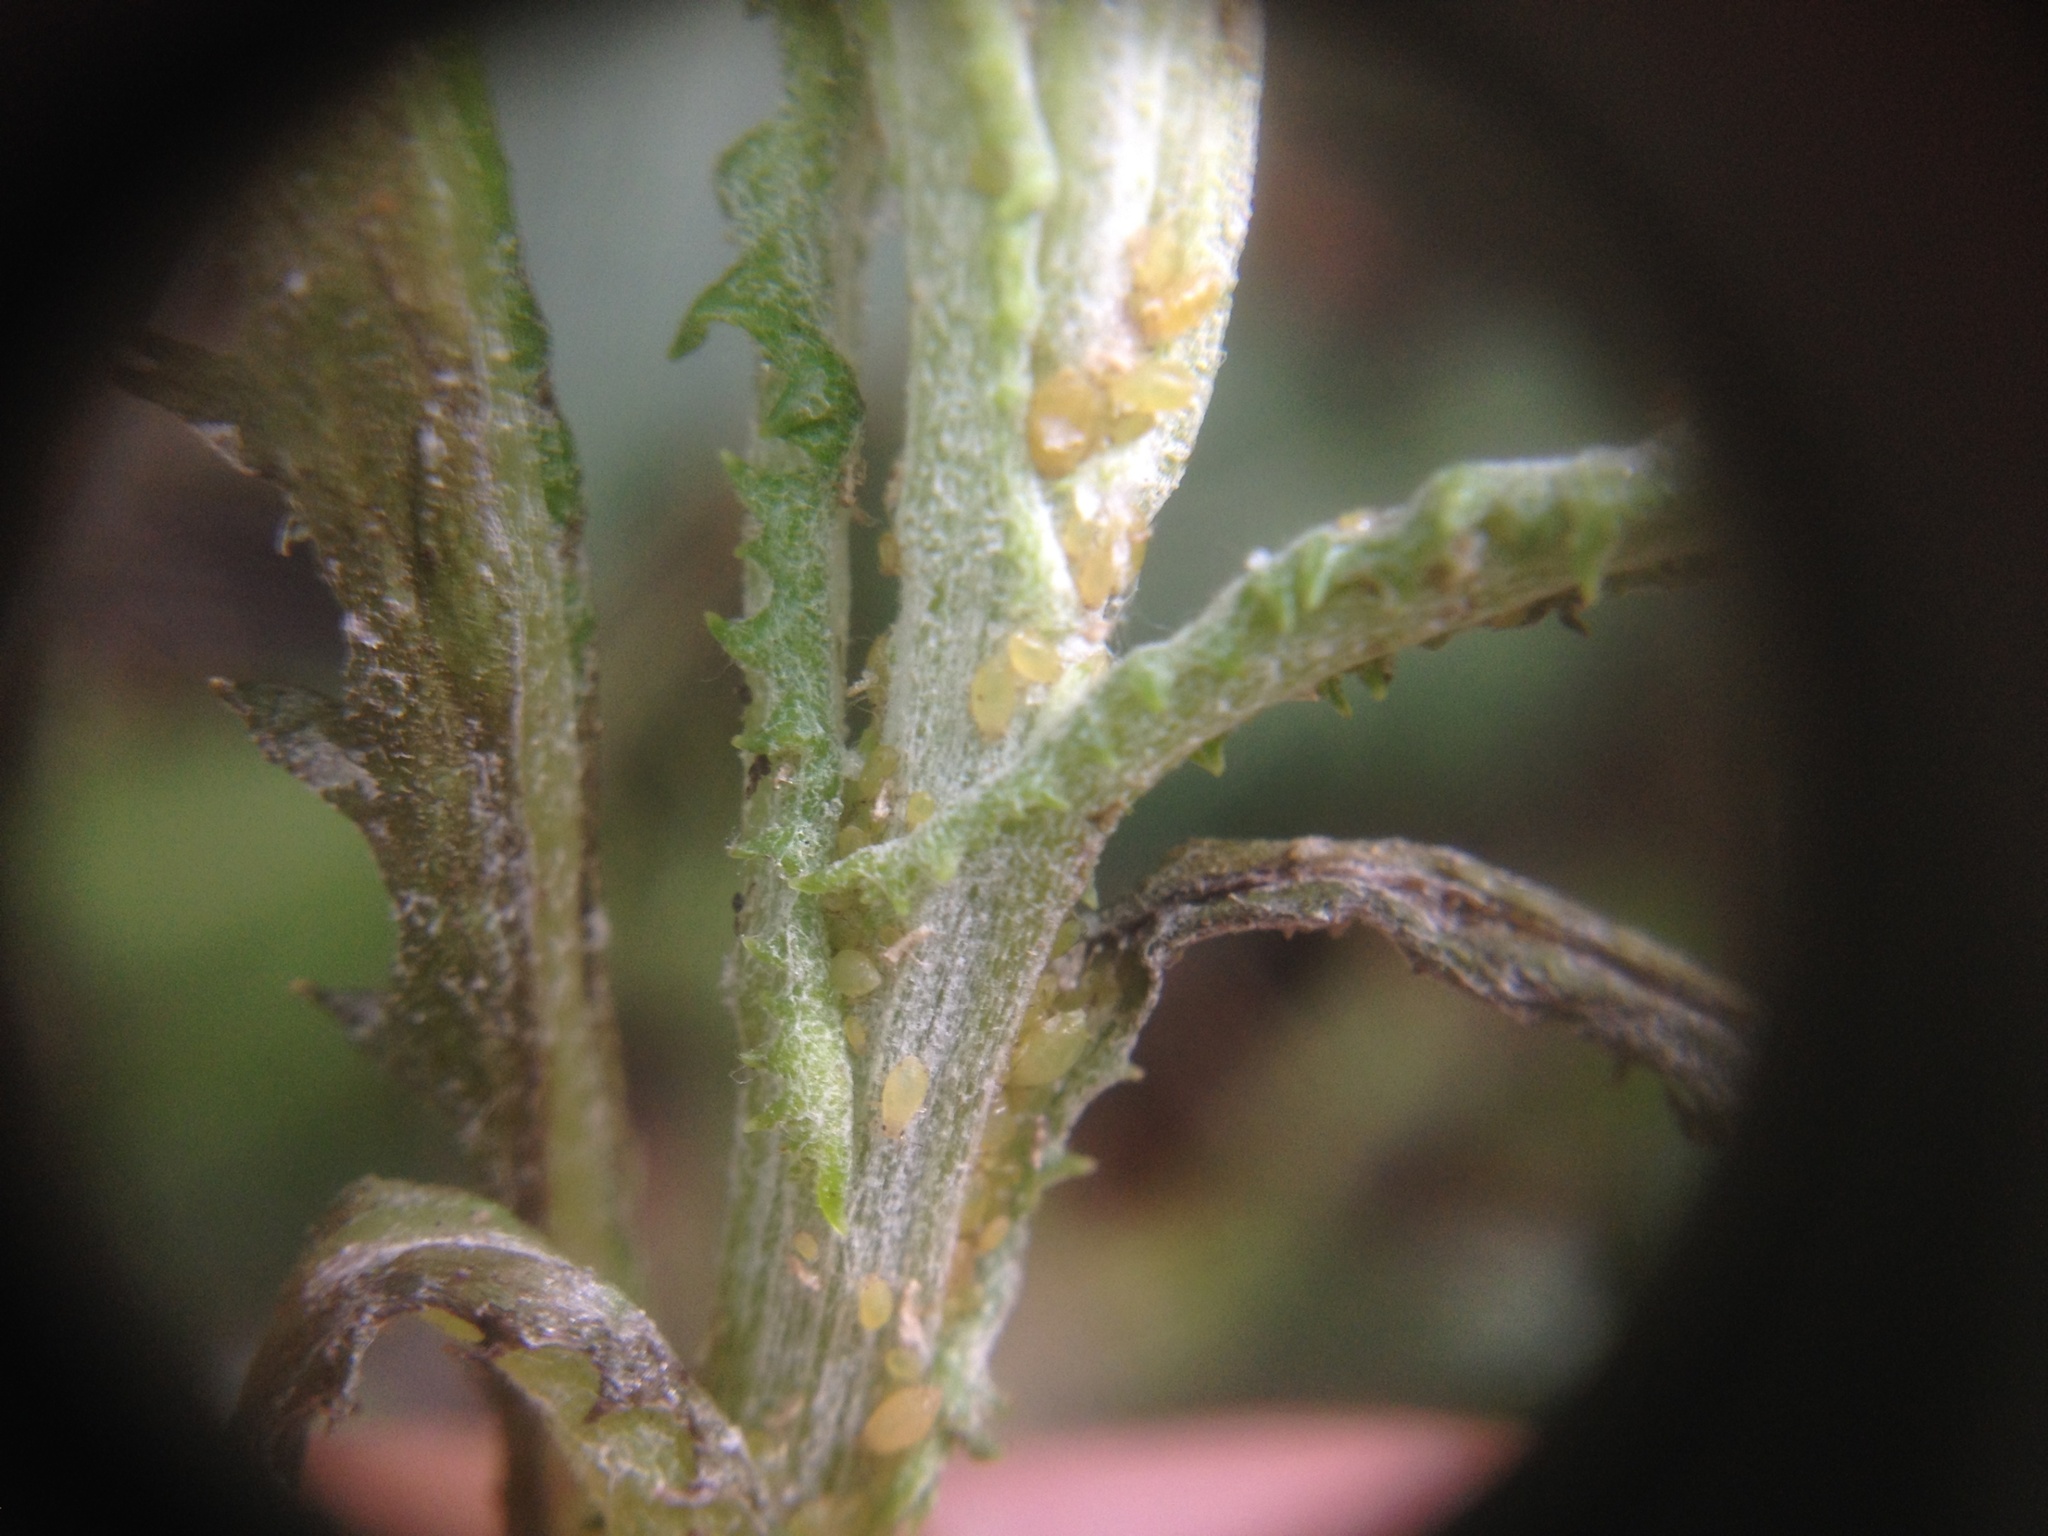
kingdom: Plantae
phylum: Tracheophyta
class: Magnoliopsida
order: Asterales
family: Asteraceae
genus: Senecio
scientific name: Senecio glomeratus
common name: Cutleaf burnweed
